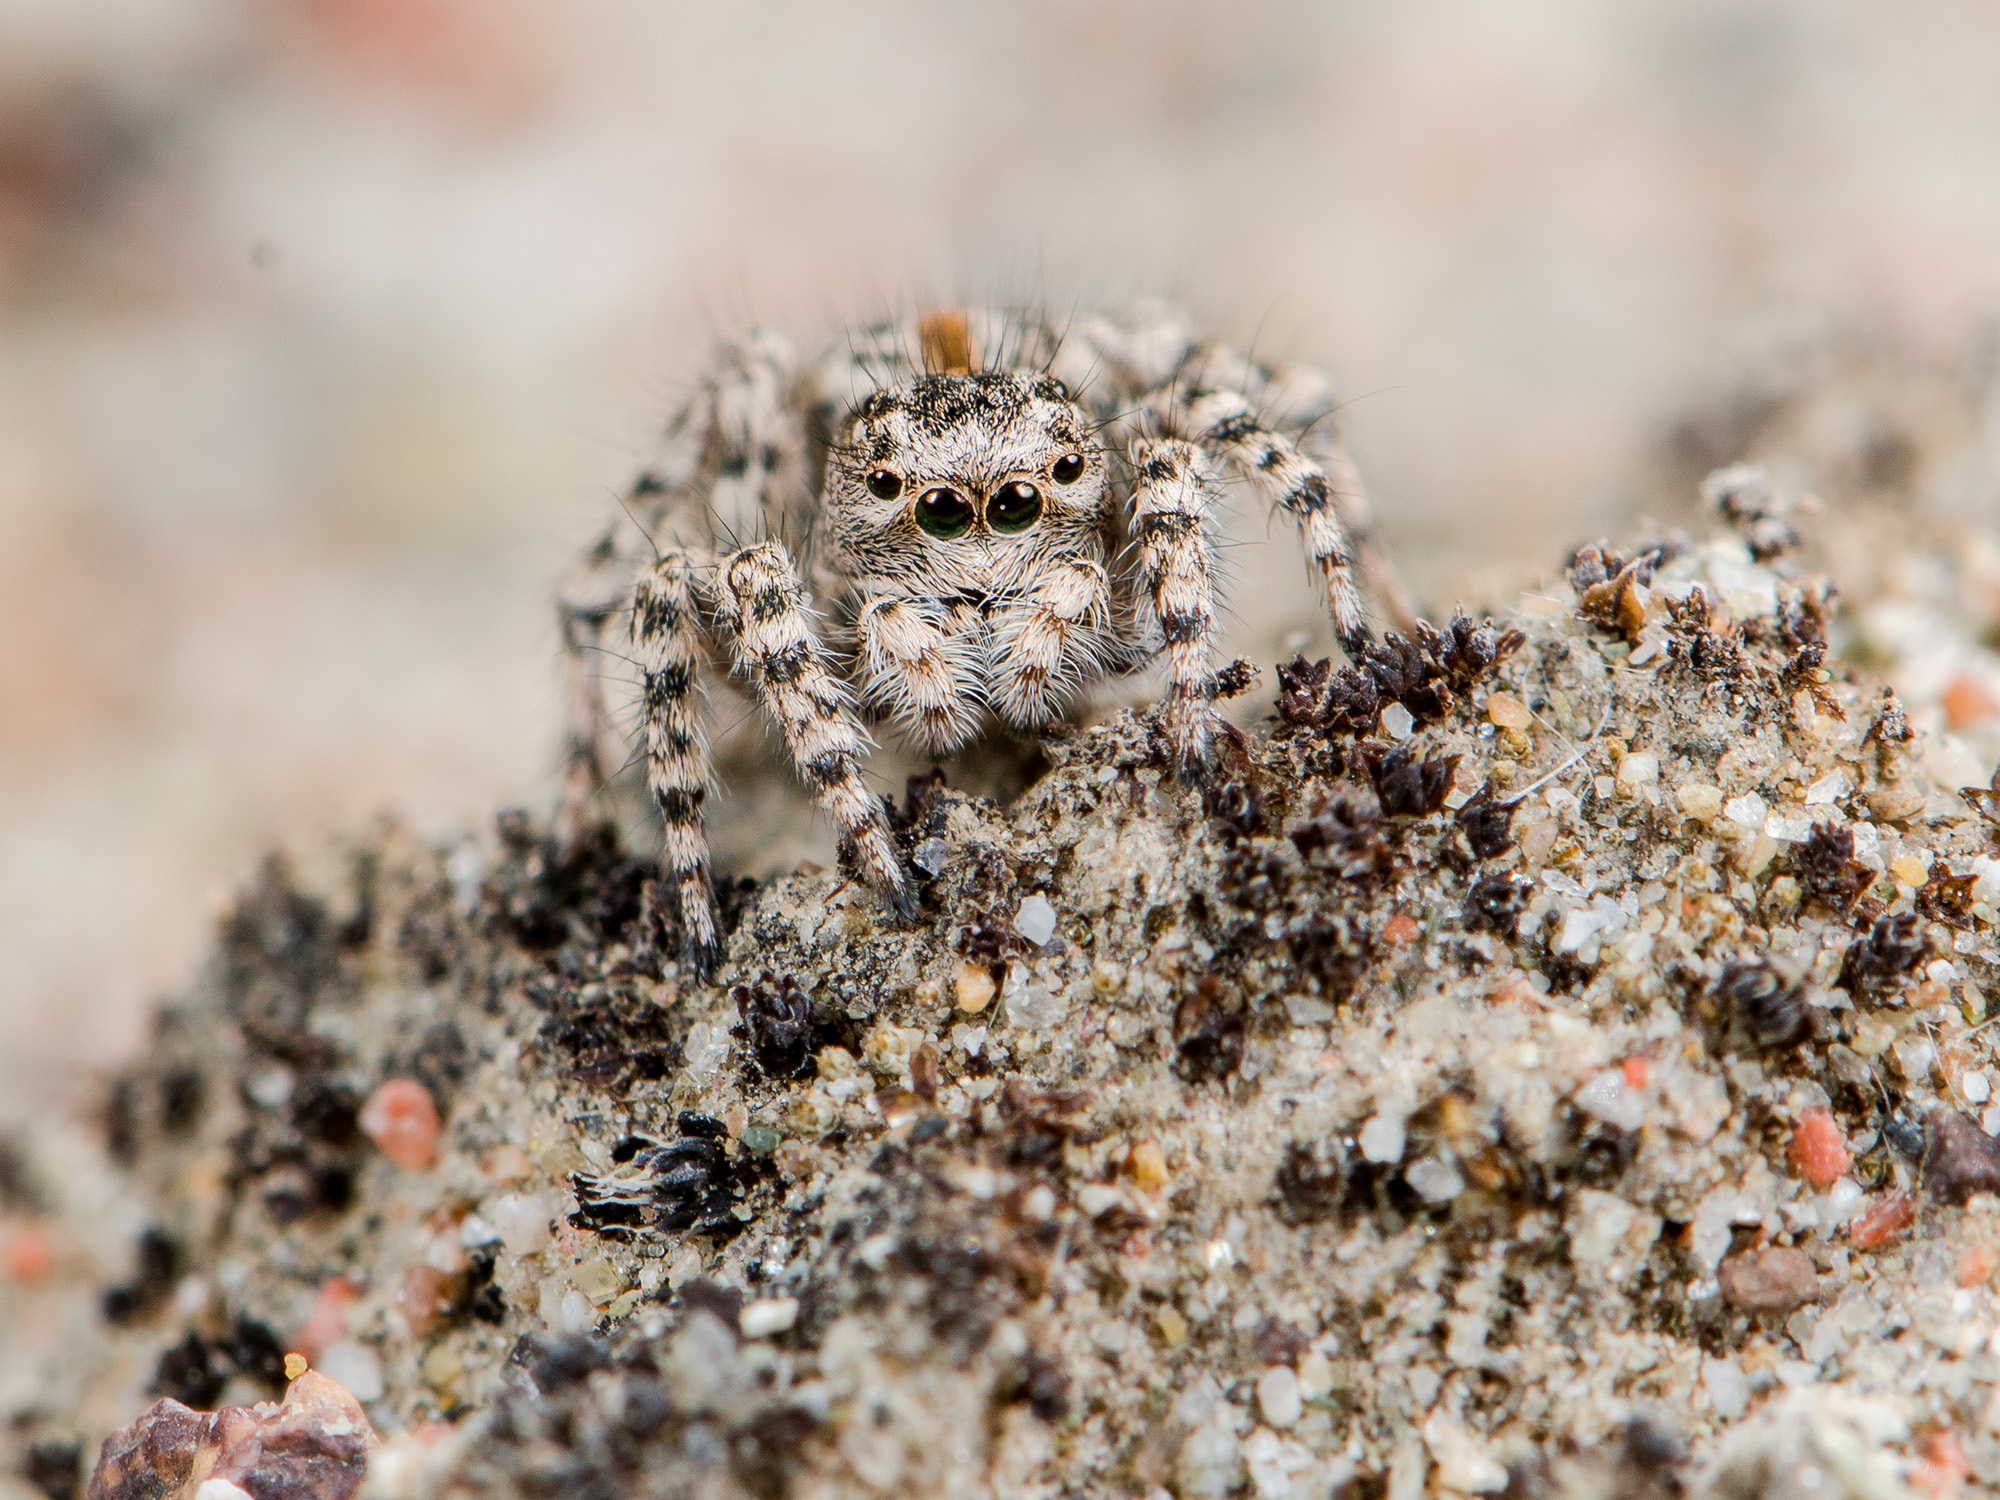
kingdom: Animalia
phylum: Arthropoda
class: Arachnida
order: Araneae
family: Salticidae
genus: Aelurillus
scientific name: Aelurillus dubatolovi
